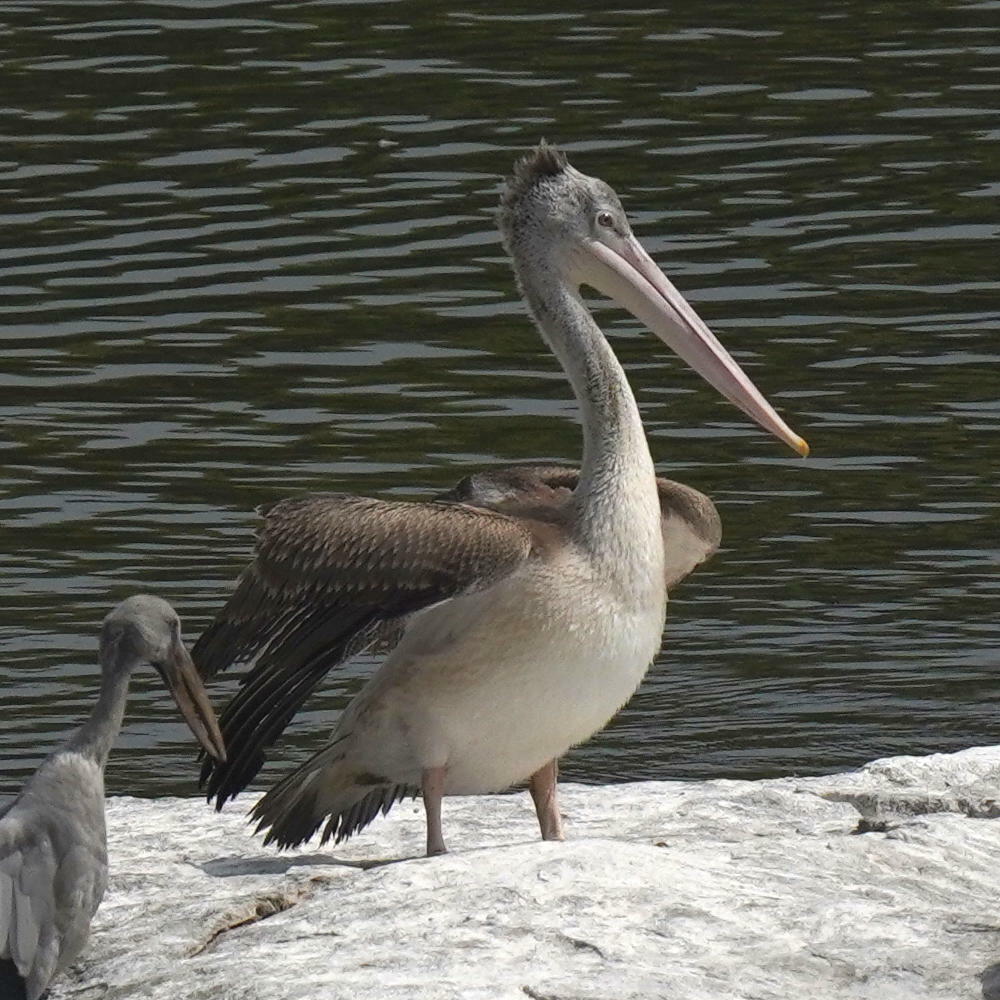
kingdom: Animalia
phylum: Chordata
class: Aves
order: Pelecaniformes
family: Pelecanidae
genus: Pelecanus
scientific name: Pelecanus philippensis
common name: Spot-billed pelican
